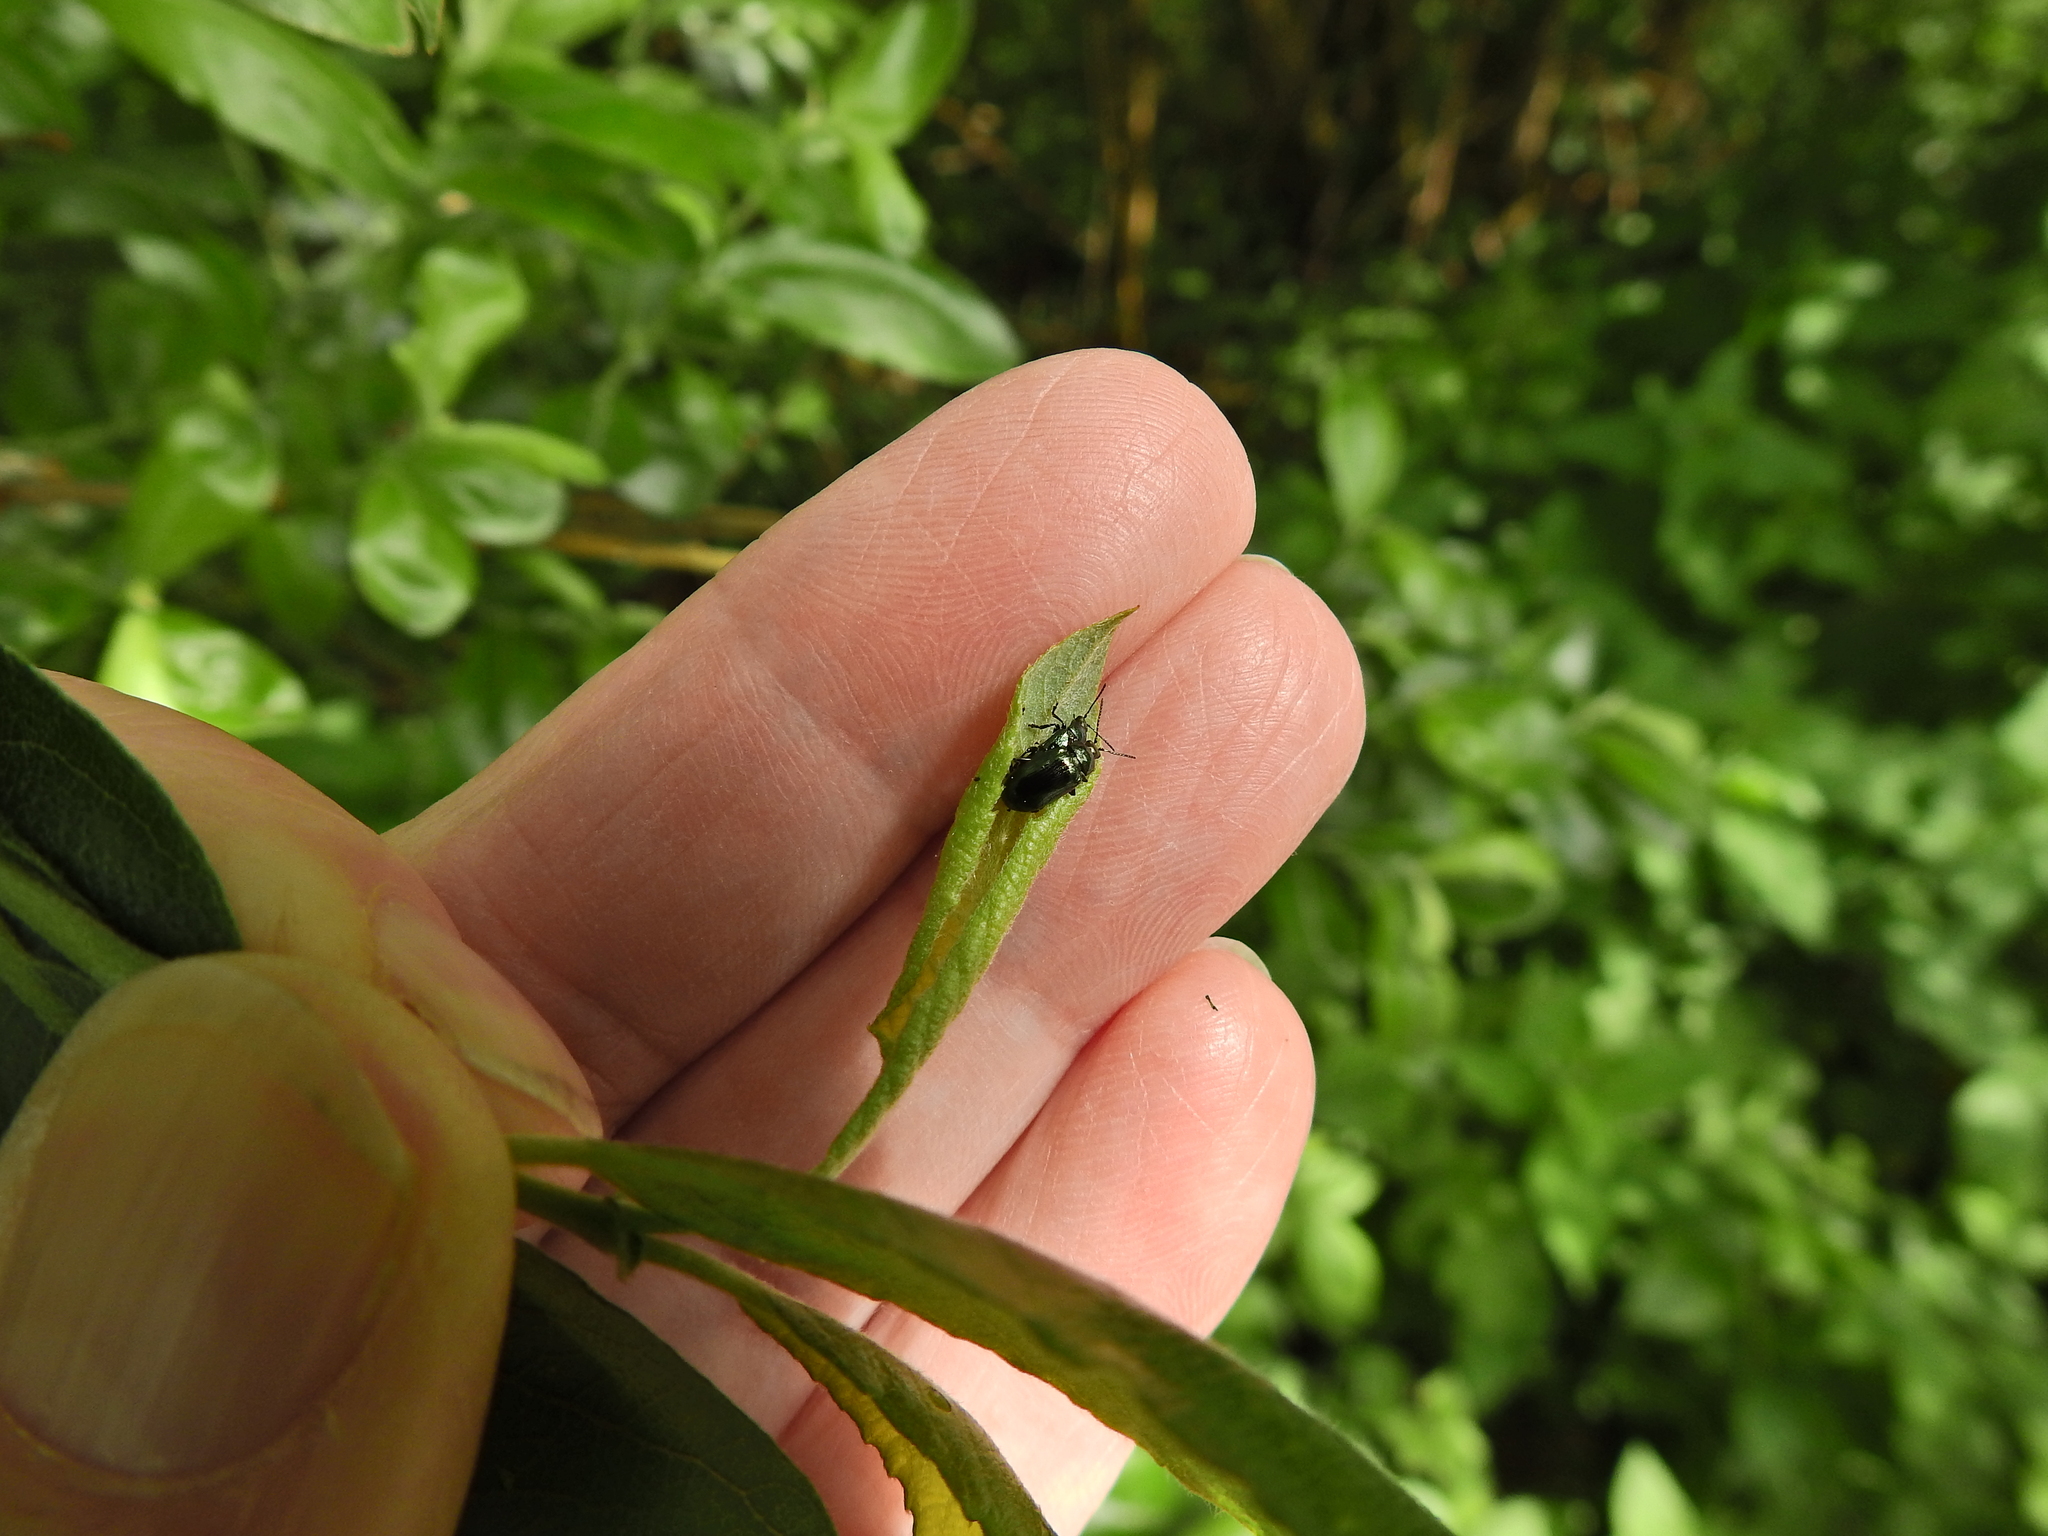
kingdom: Animalia
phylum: Arthropoda
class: Insecta
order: Coleoptera
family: Chrysomelidae
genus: Phratora
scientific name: Phratora vulgatissima
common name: Blue willow beetle
